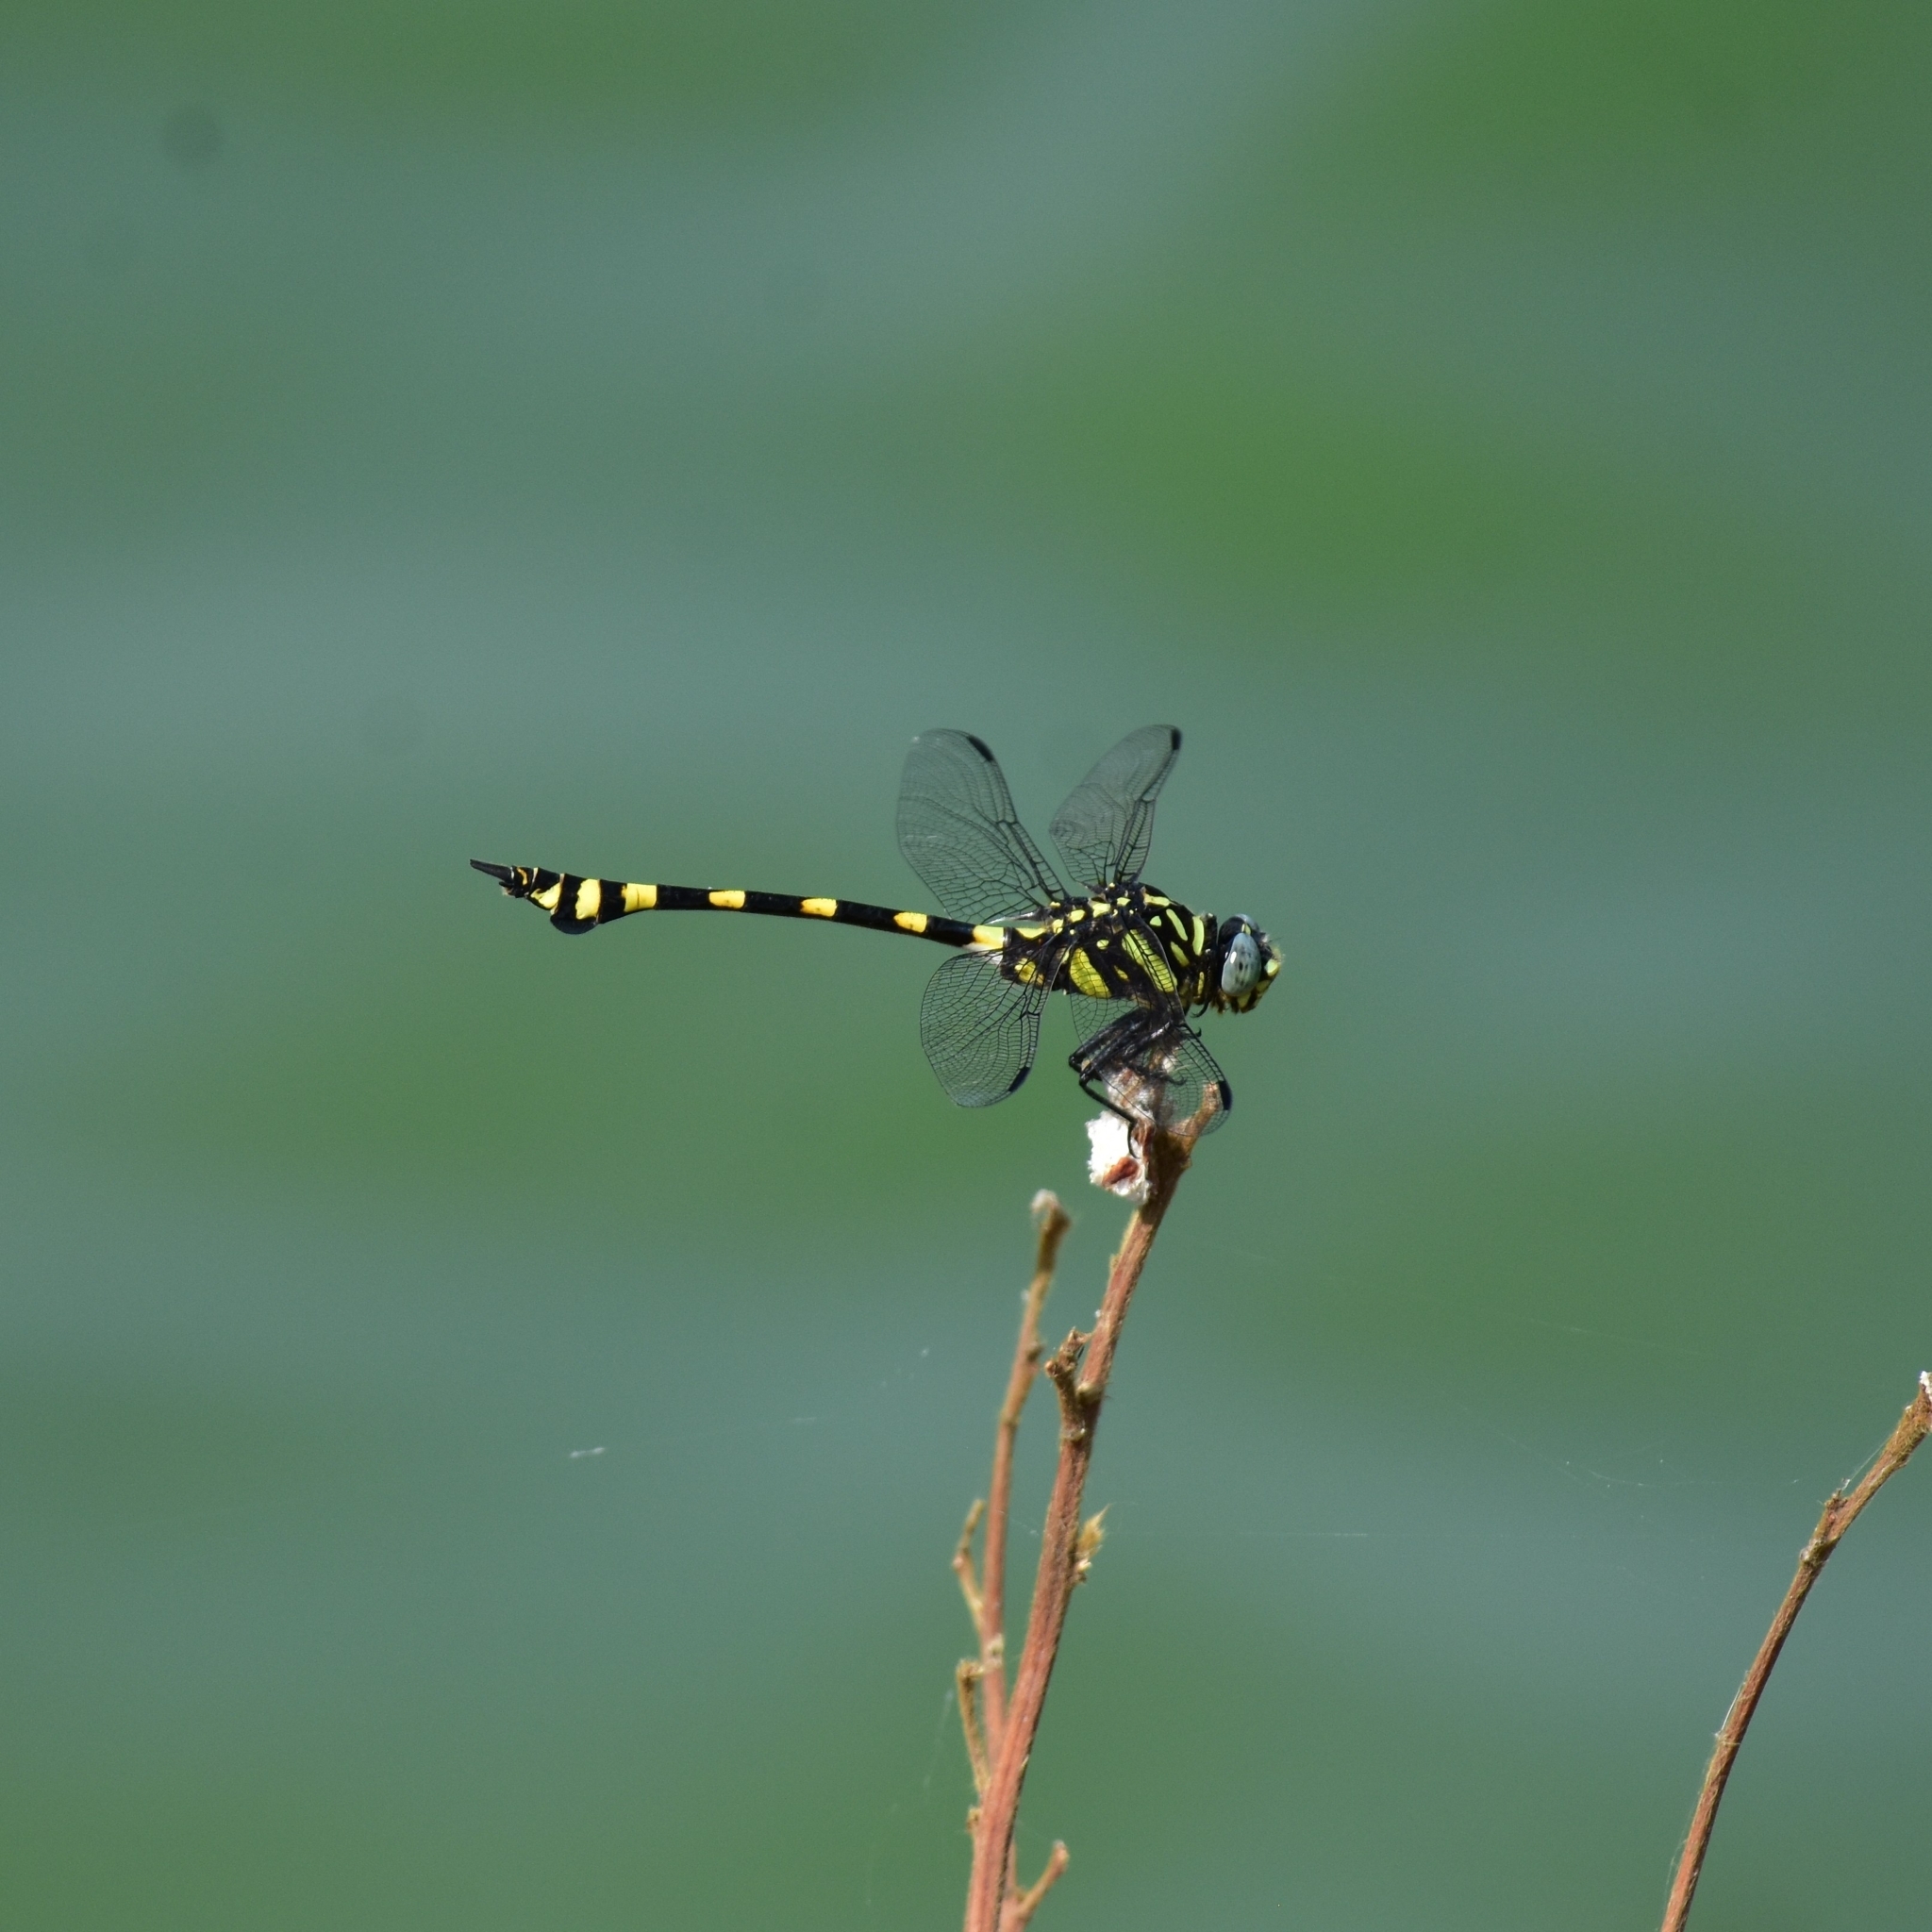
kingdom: Animalia
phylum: Arthropoda
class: Insecta
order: Odonata
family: Gomphidae
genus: Ictinogomphus
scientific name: Ictinogomphus rapax
